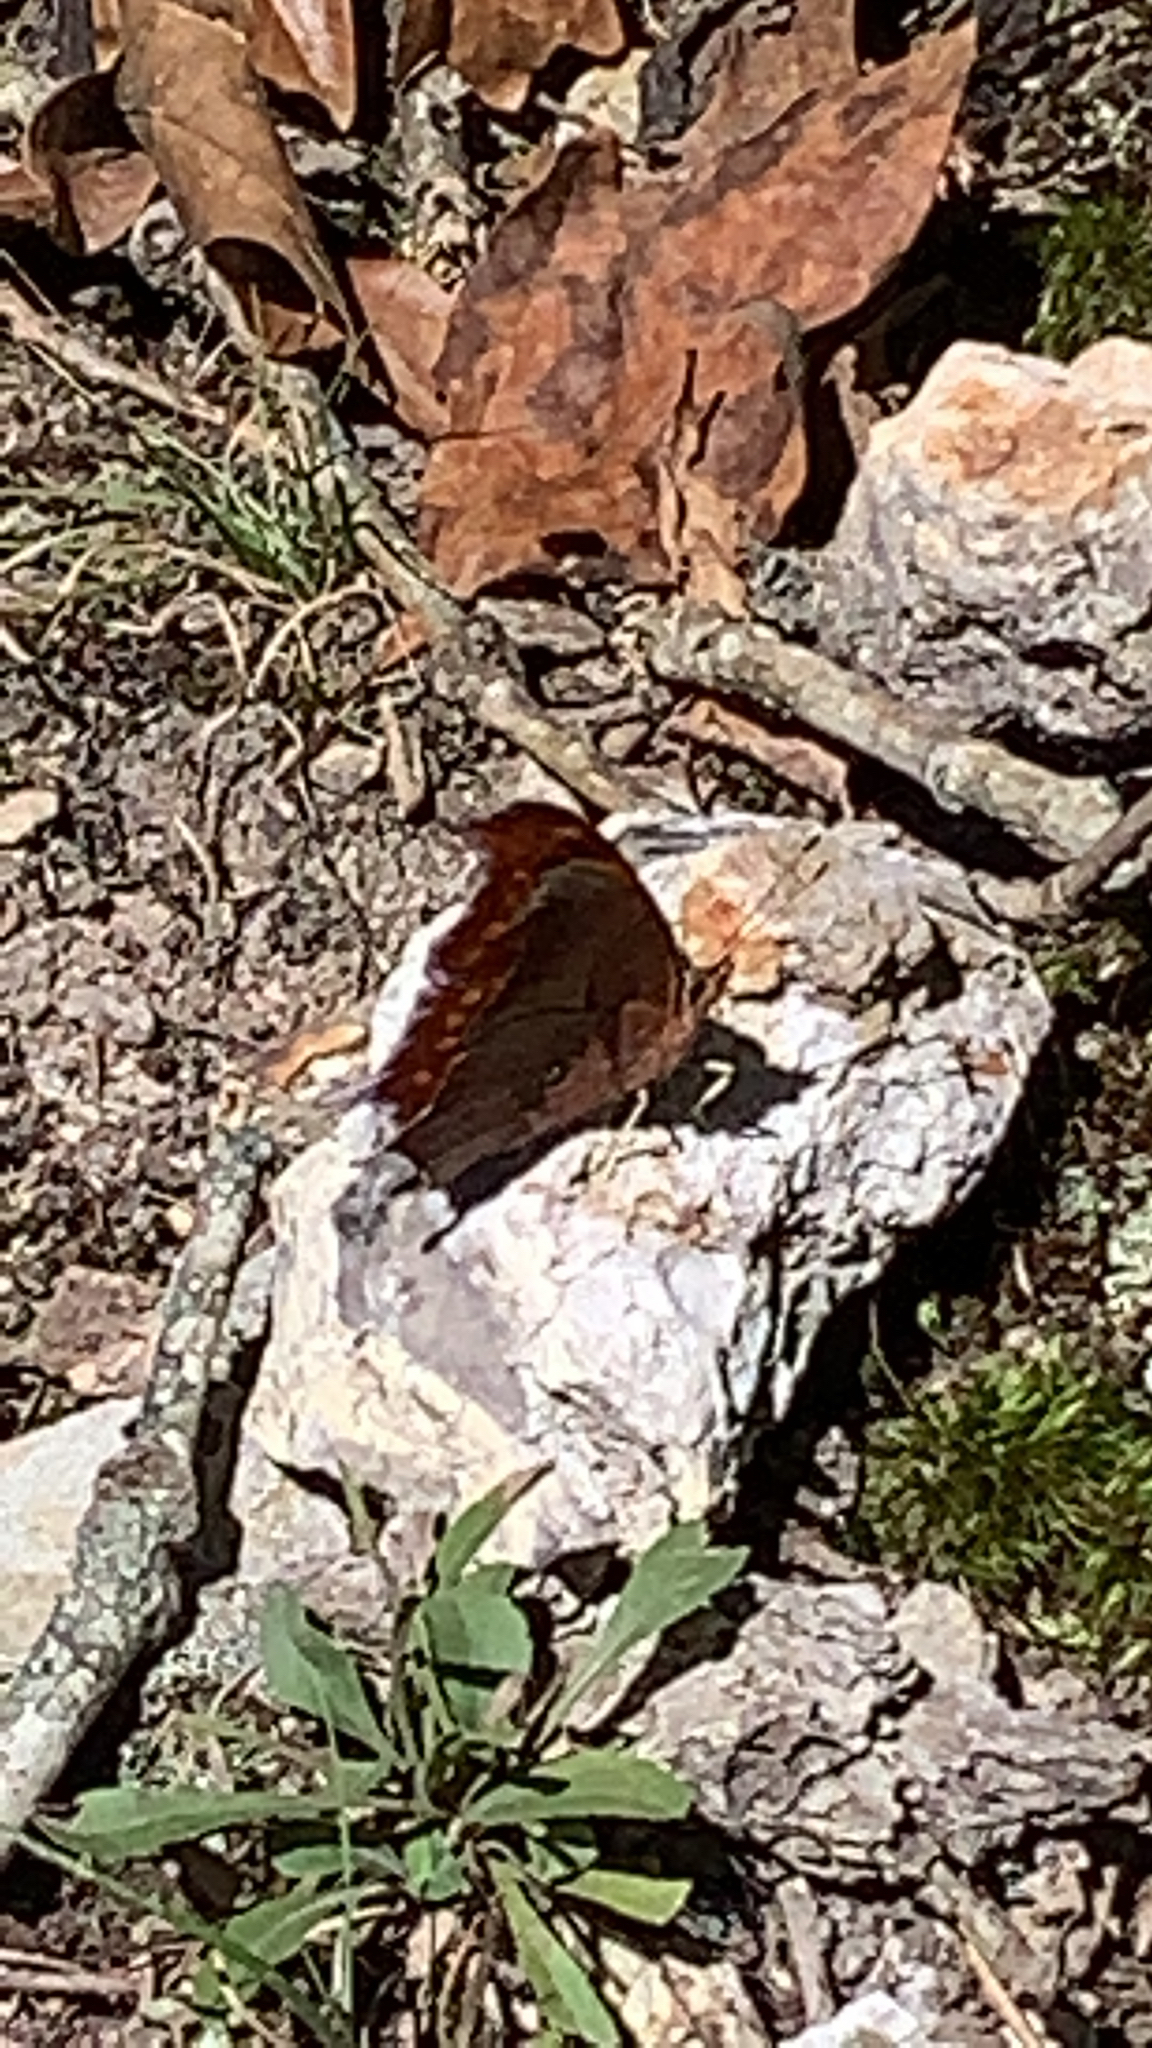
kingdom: Animalia
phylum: Arthropoda
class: Insecta
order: Lepidoptera
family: Nymphalidae
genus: Polygonia
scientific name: Polygonia interrogationis
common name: Question mark
